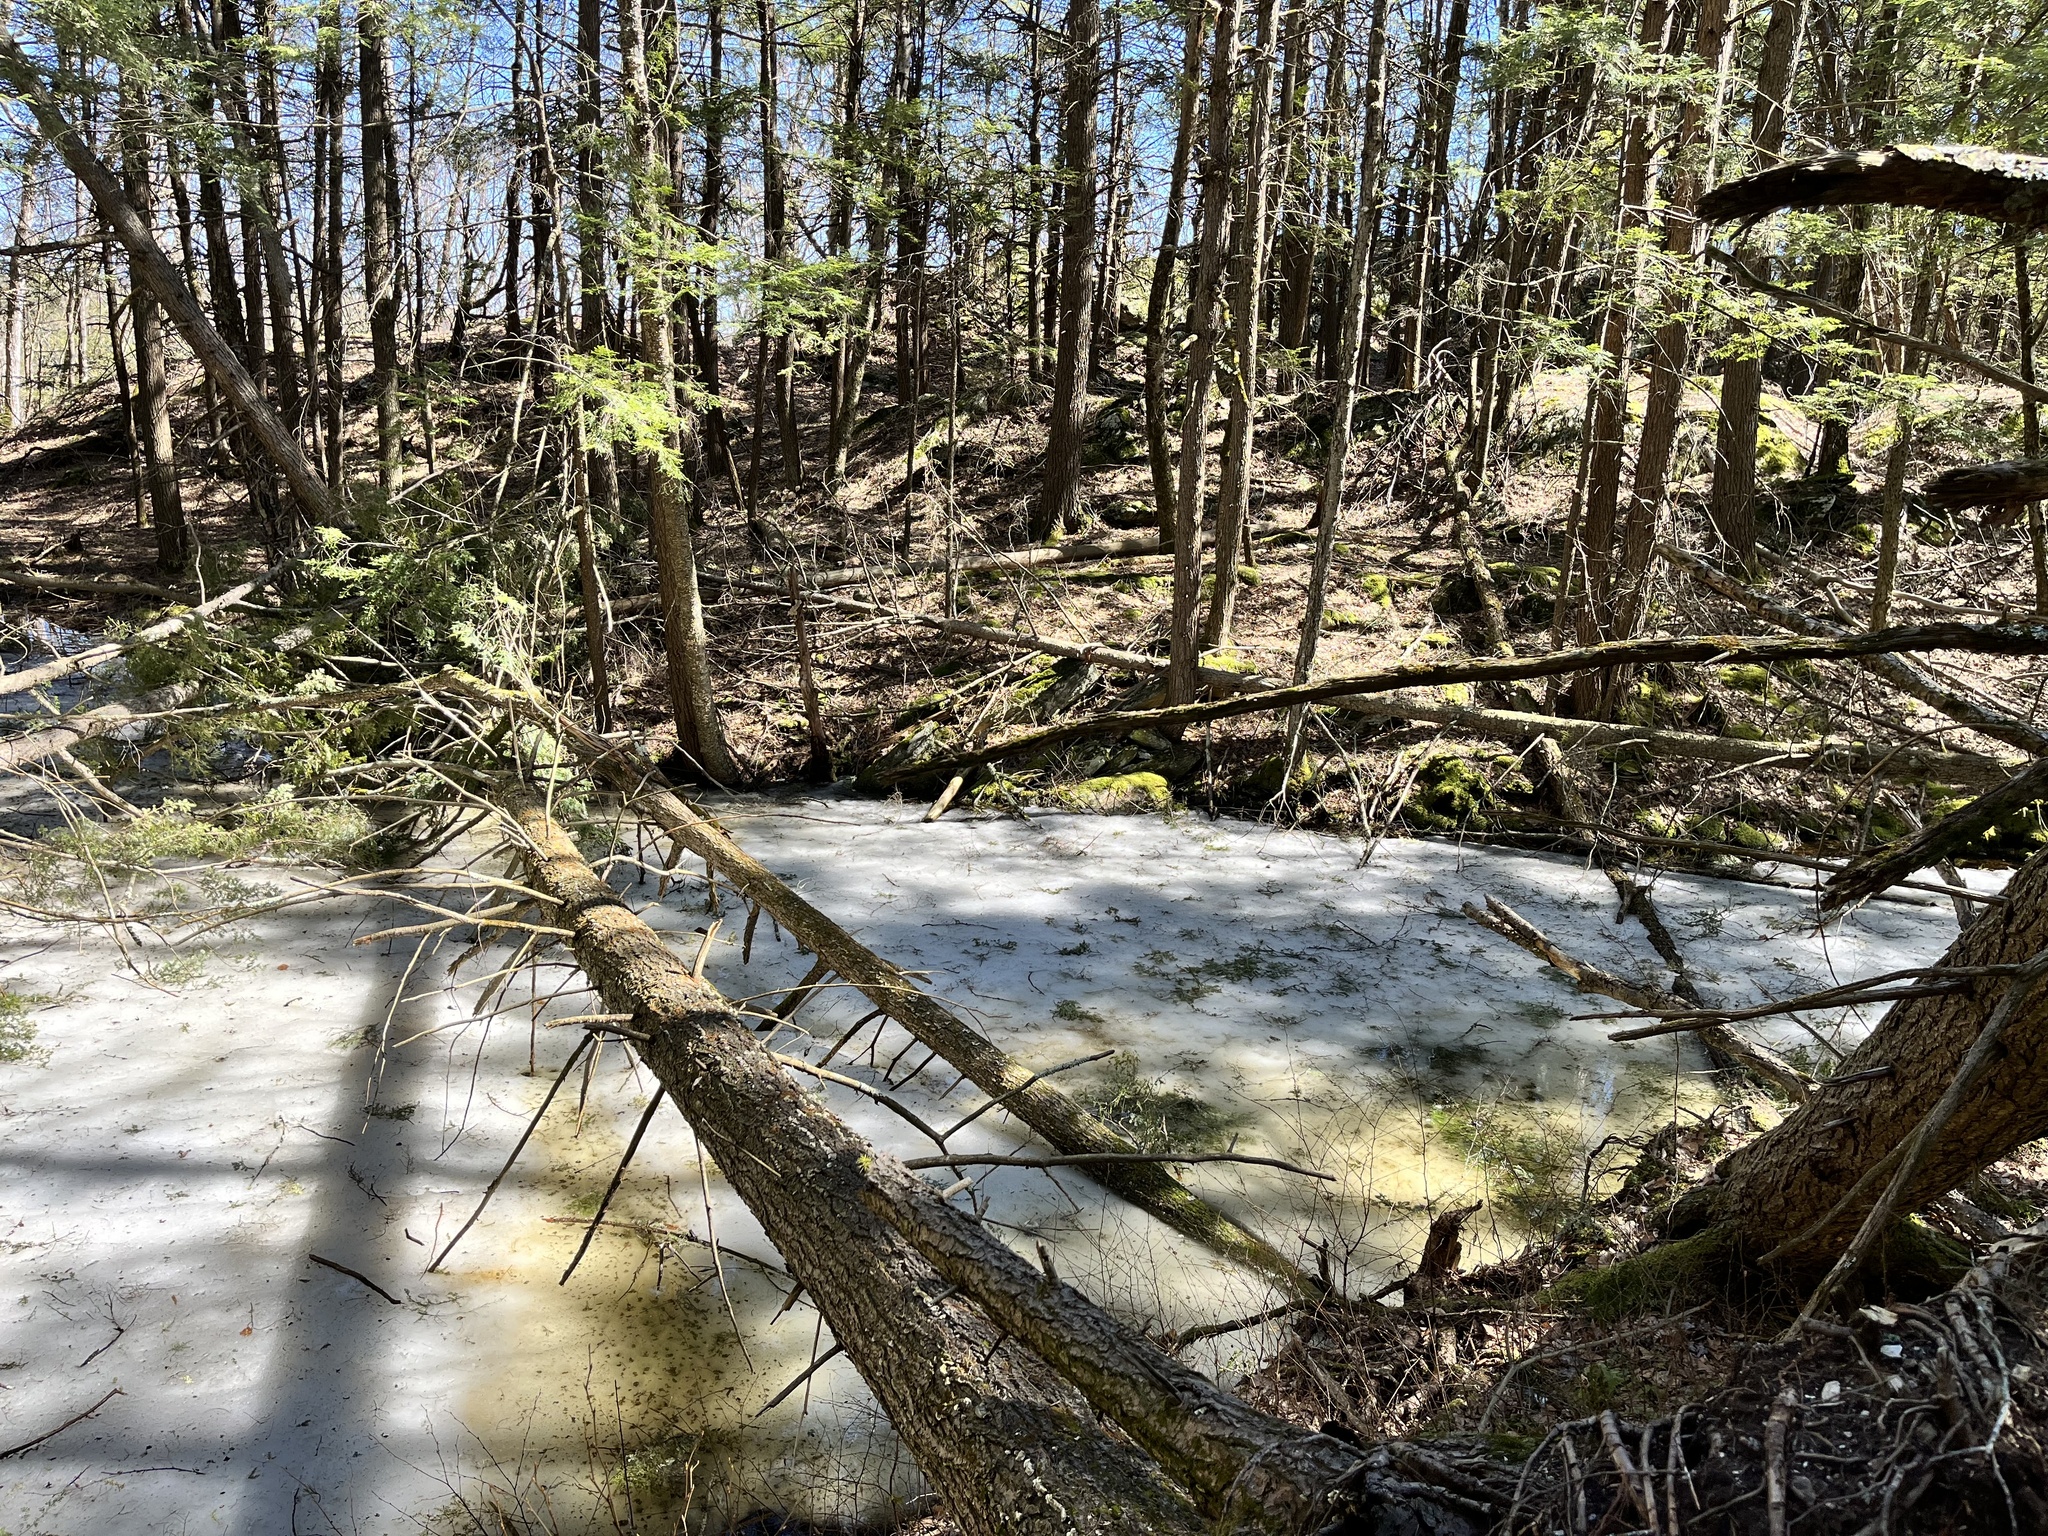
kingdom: Animalia
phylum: Chordata
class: Amphibia
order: Anura
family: Ranidae
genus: Lithobates
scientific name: Lithobates sylvaticus
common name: Wood frog
